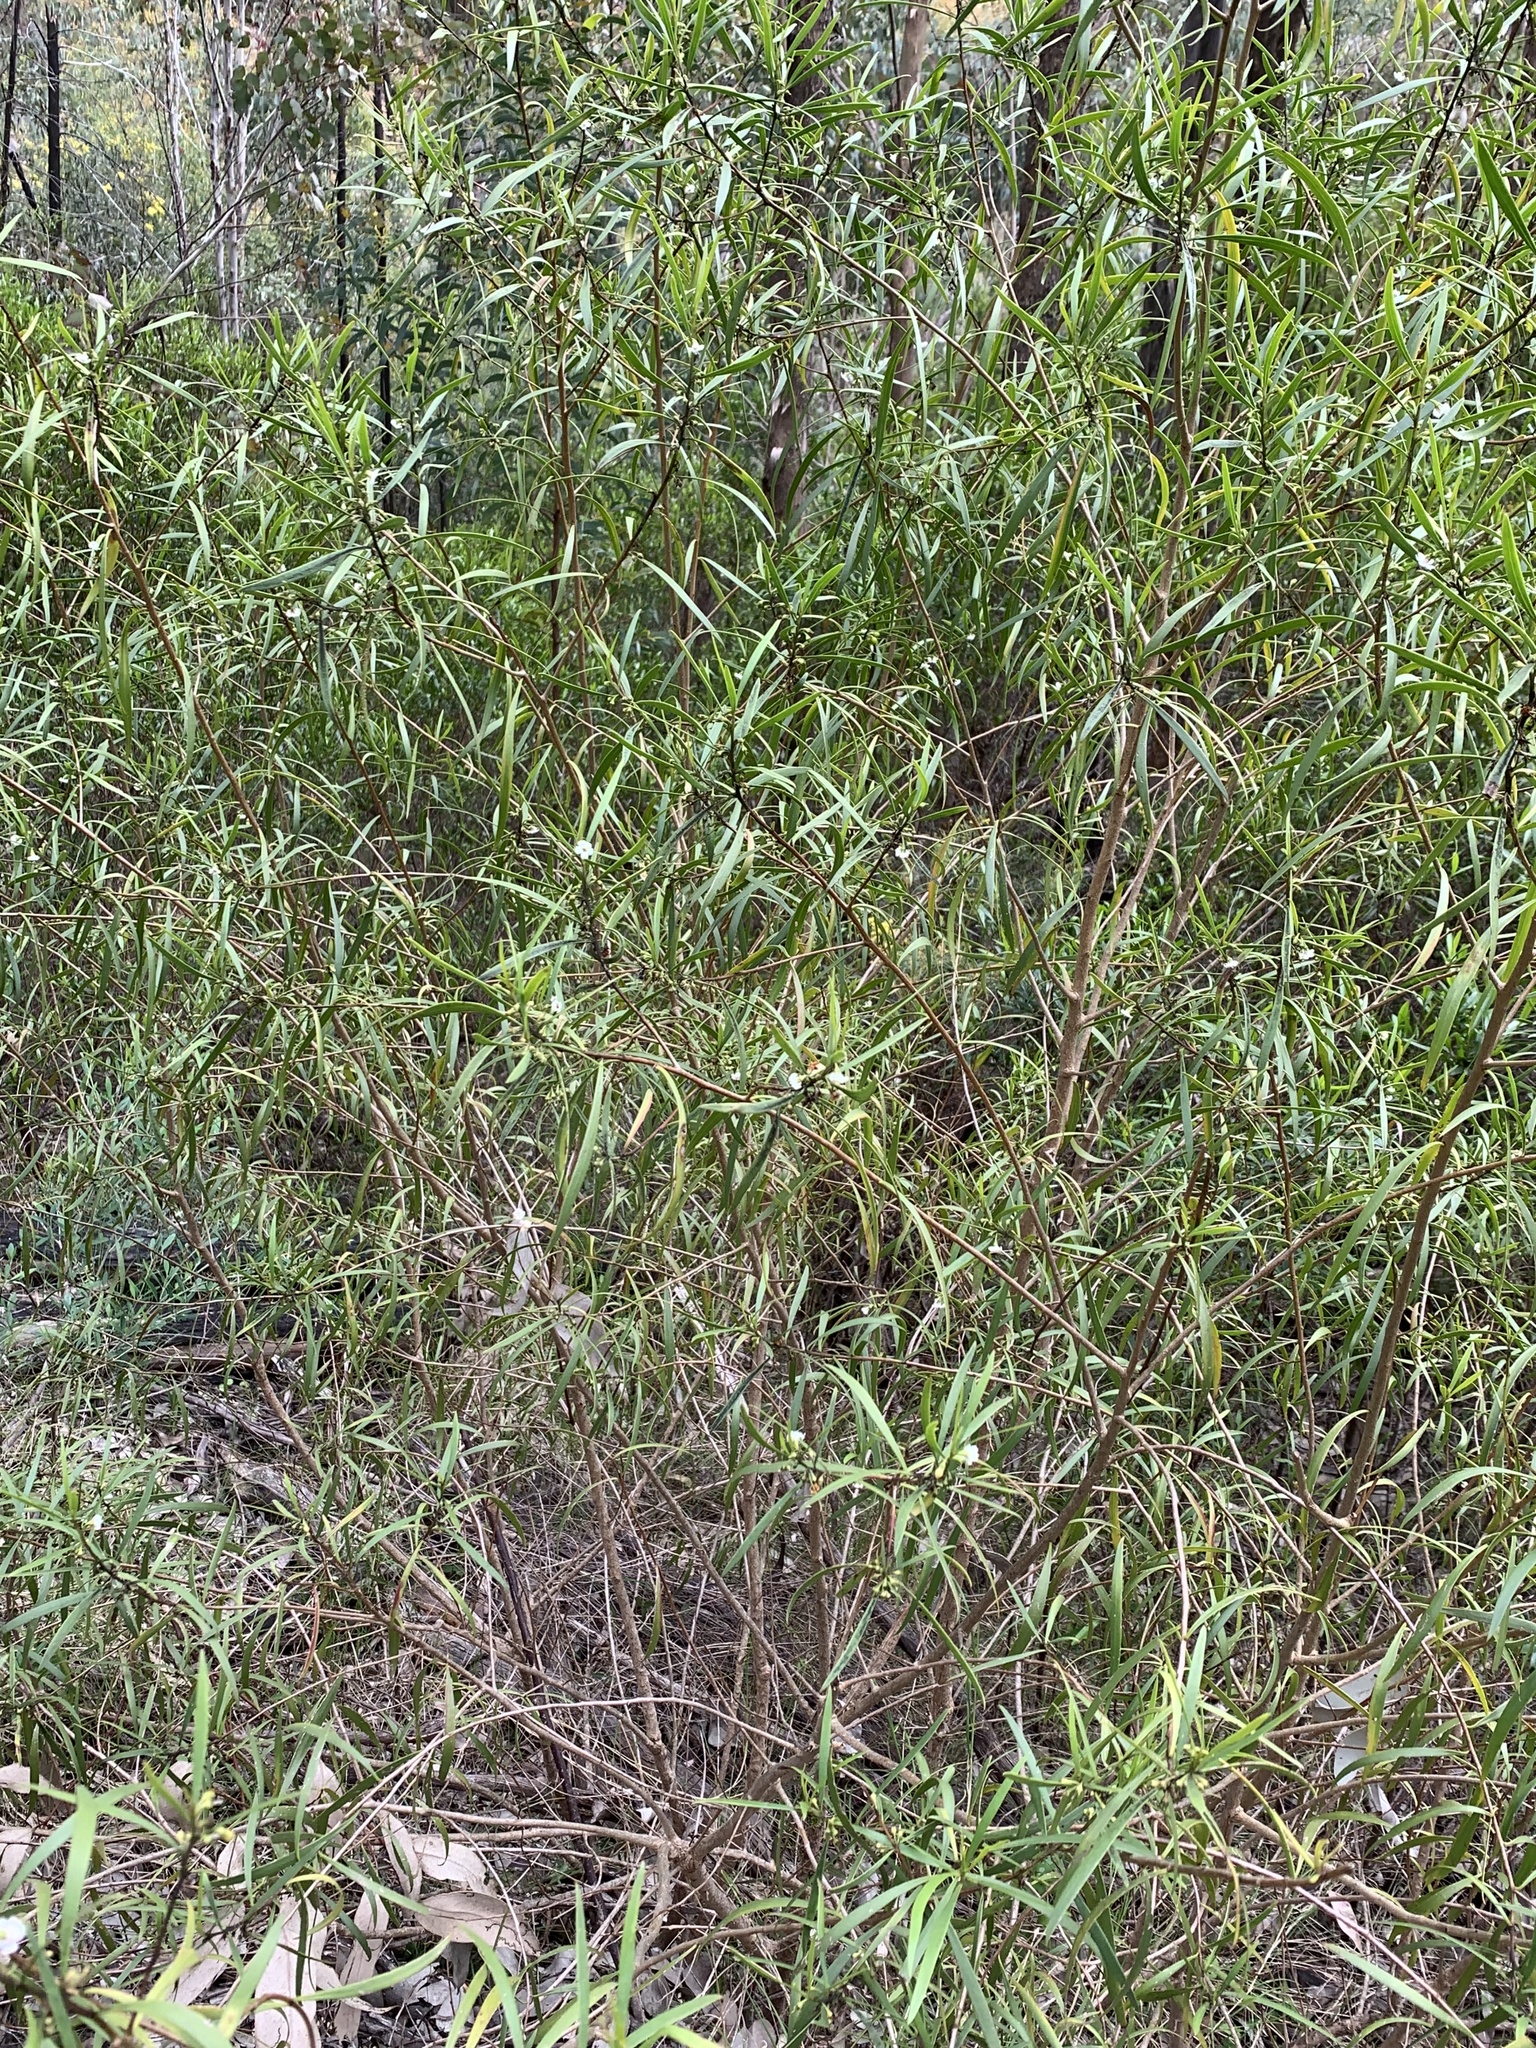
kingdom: Plantae
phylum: Tracheophyta
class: Magnoliopsida
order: Lamiales
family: Scrophulariaceae
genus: Myoporum
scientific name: Myoporum montanum
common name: Waterbush
